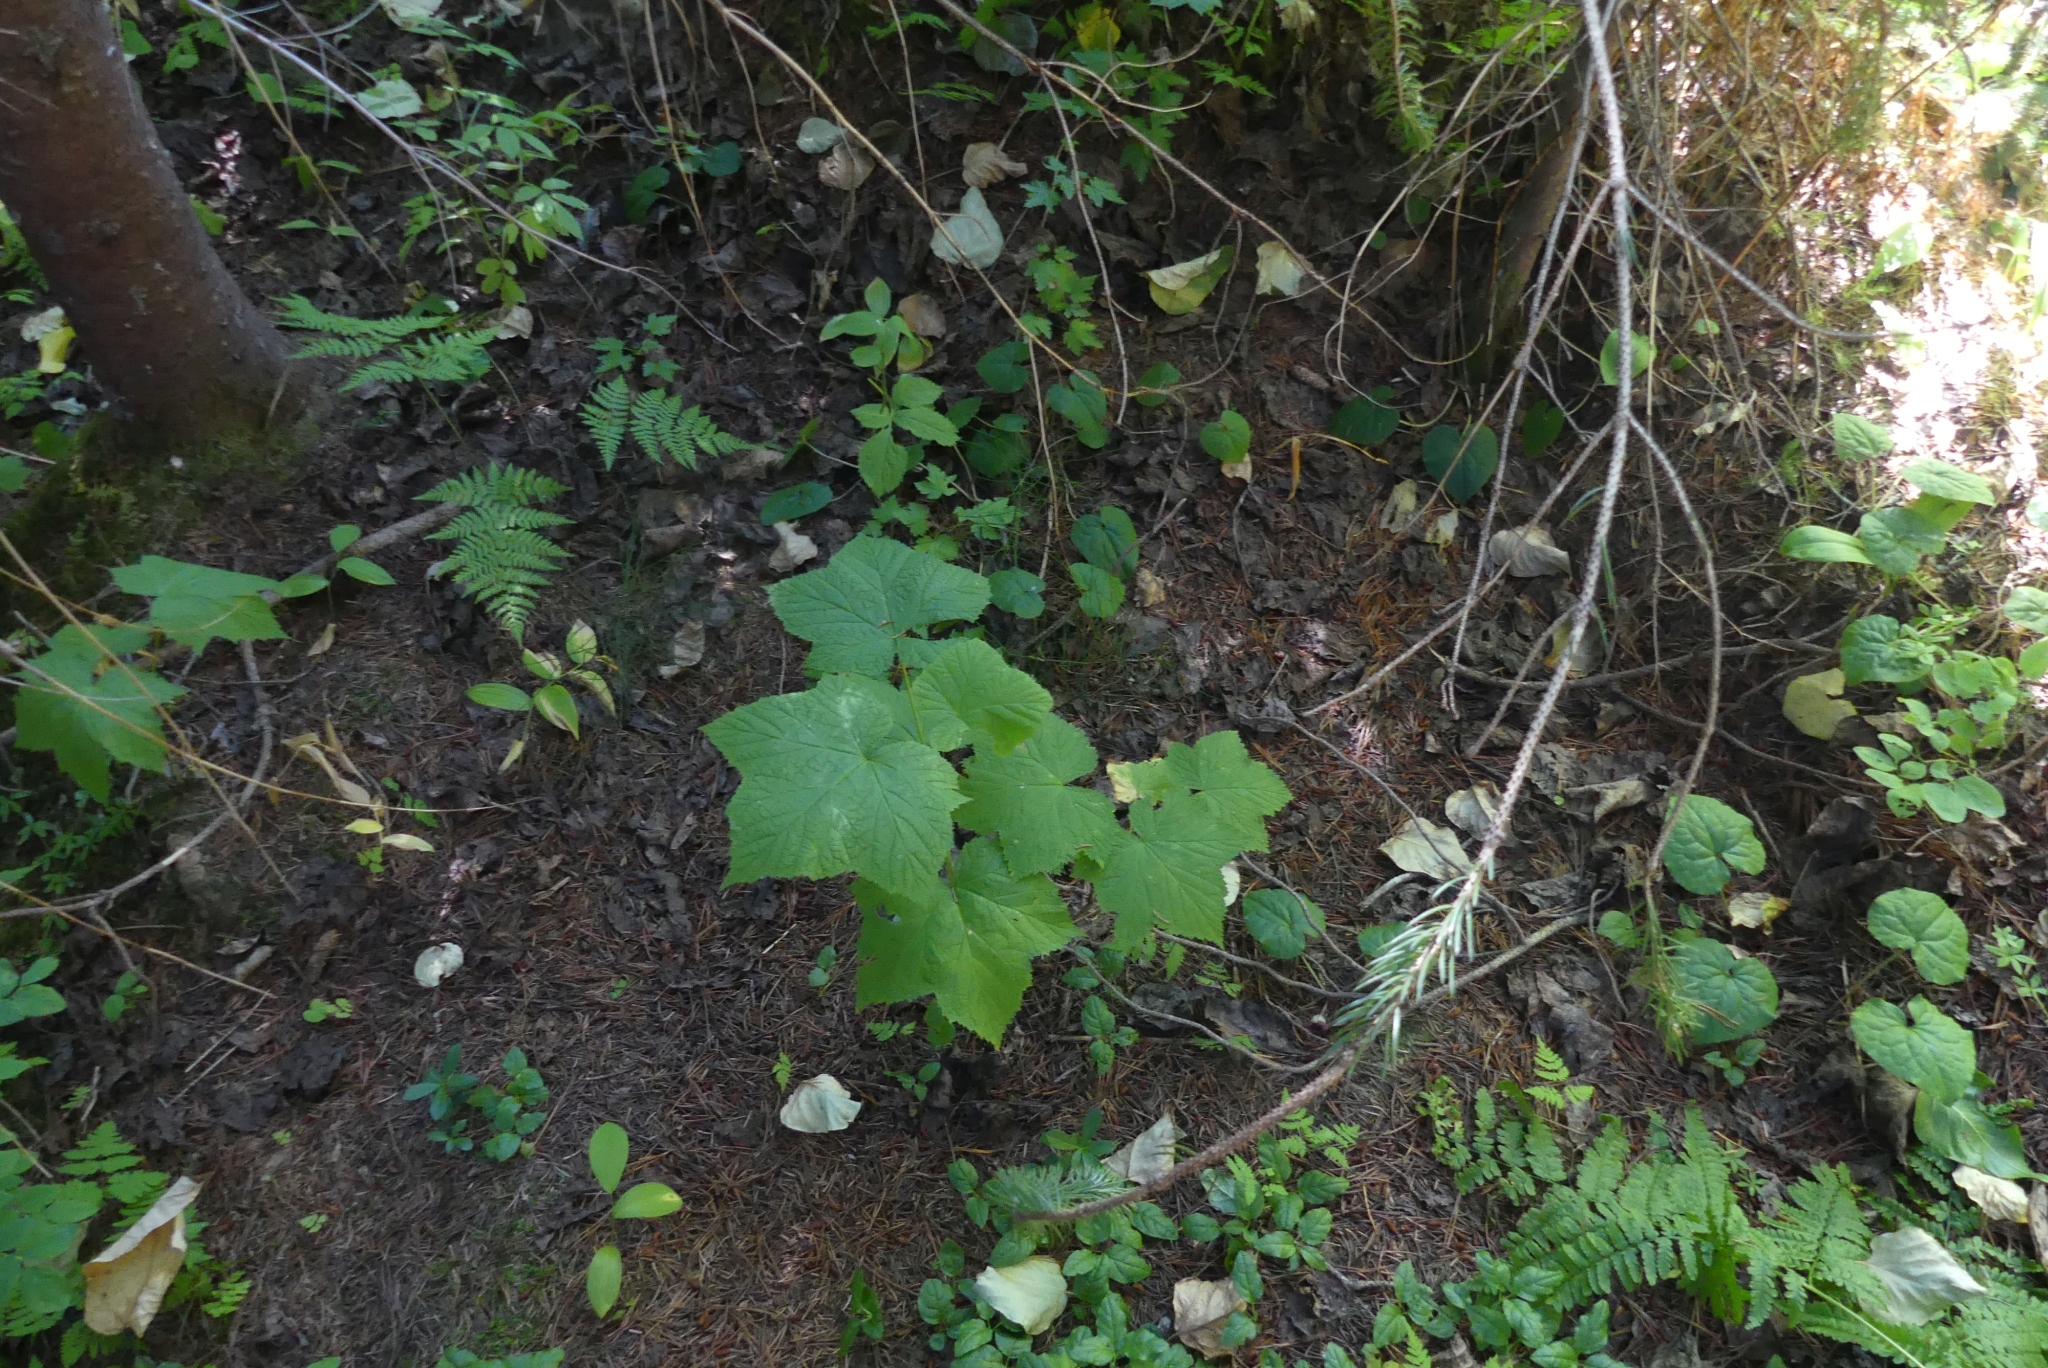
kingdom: Plantae
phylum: Tracheophyta
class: Magnoliopsida
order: Rosales
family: Rosaceae
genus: Rubus
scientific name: Rubus parviflorus
